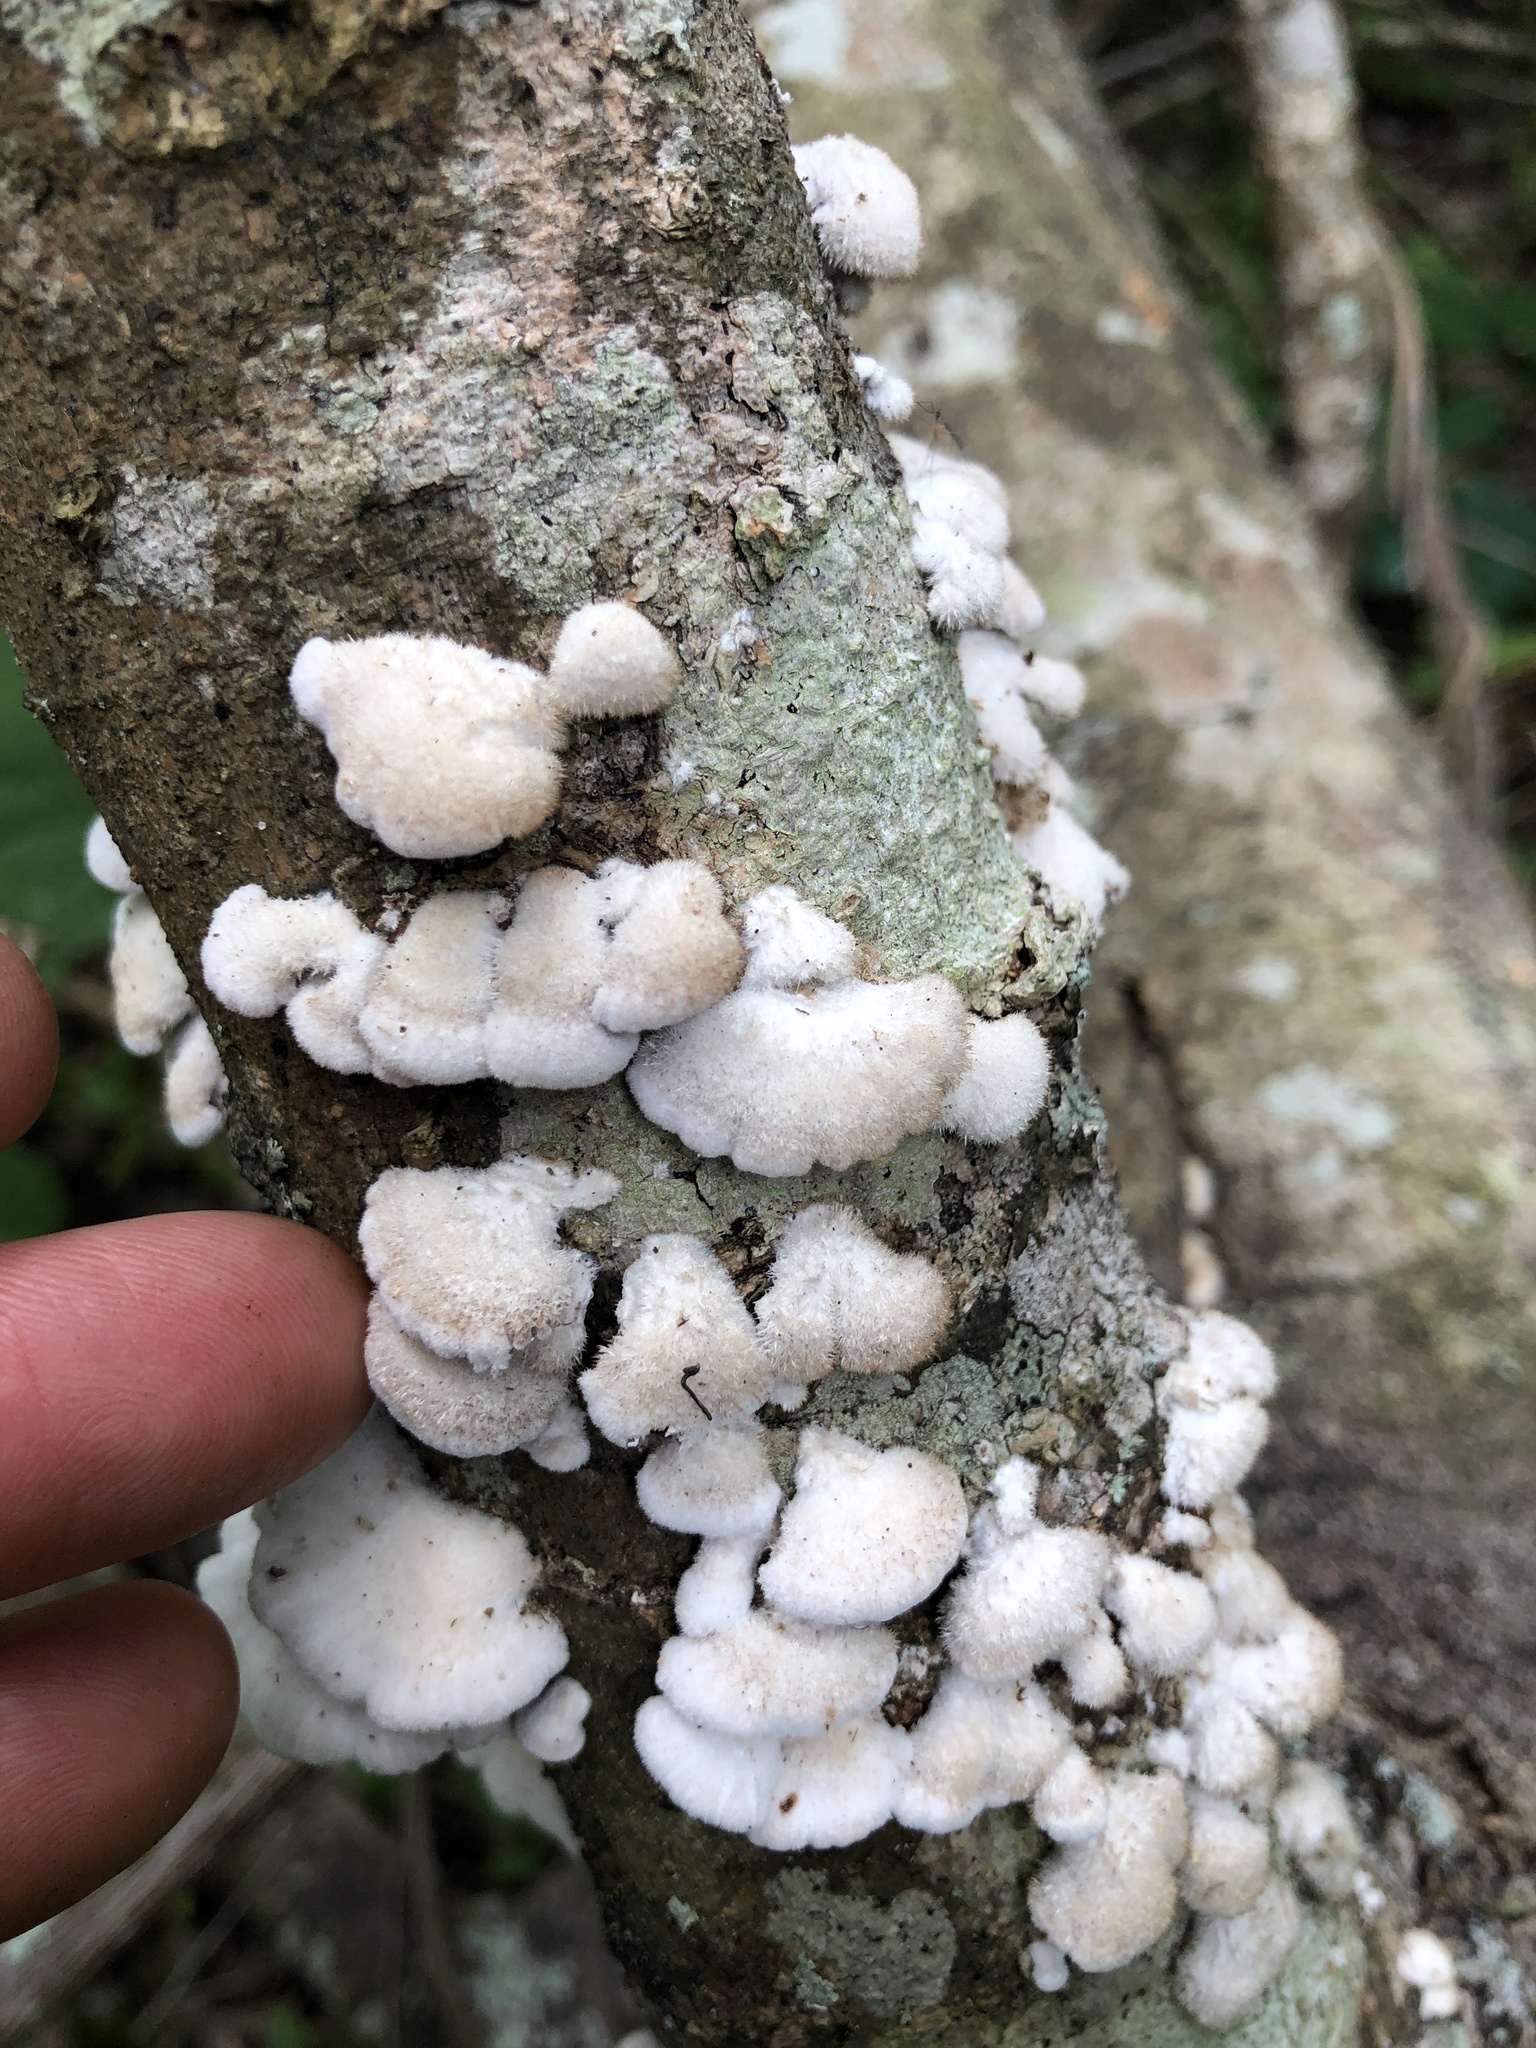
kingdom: Fungi
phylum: Basidiomycota
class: Agaricomycetes
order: Agaricales
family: Schizophyllaceae
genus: Schizophyllum
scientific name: Schizophyllum commune
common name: Common porecrust
